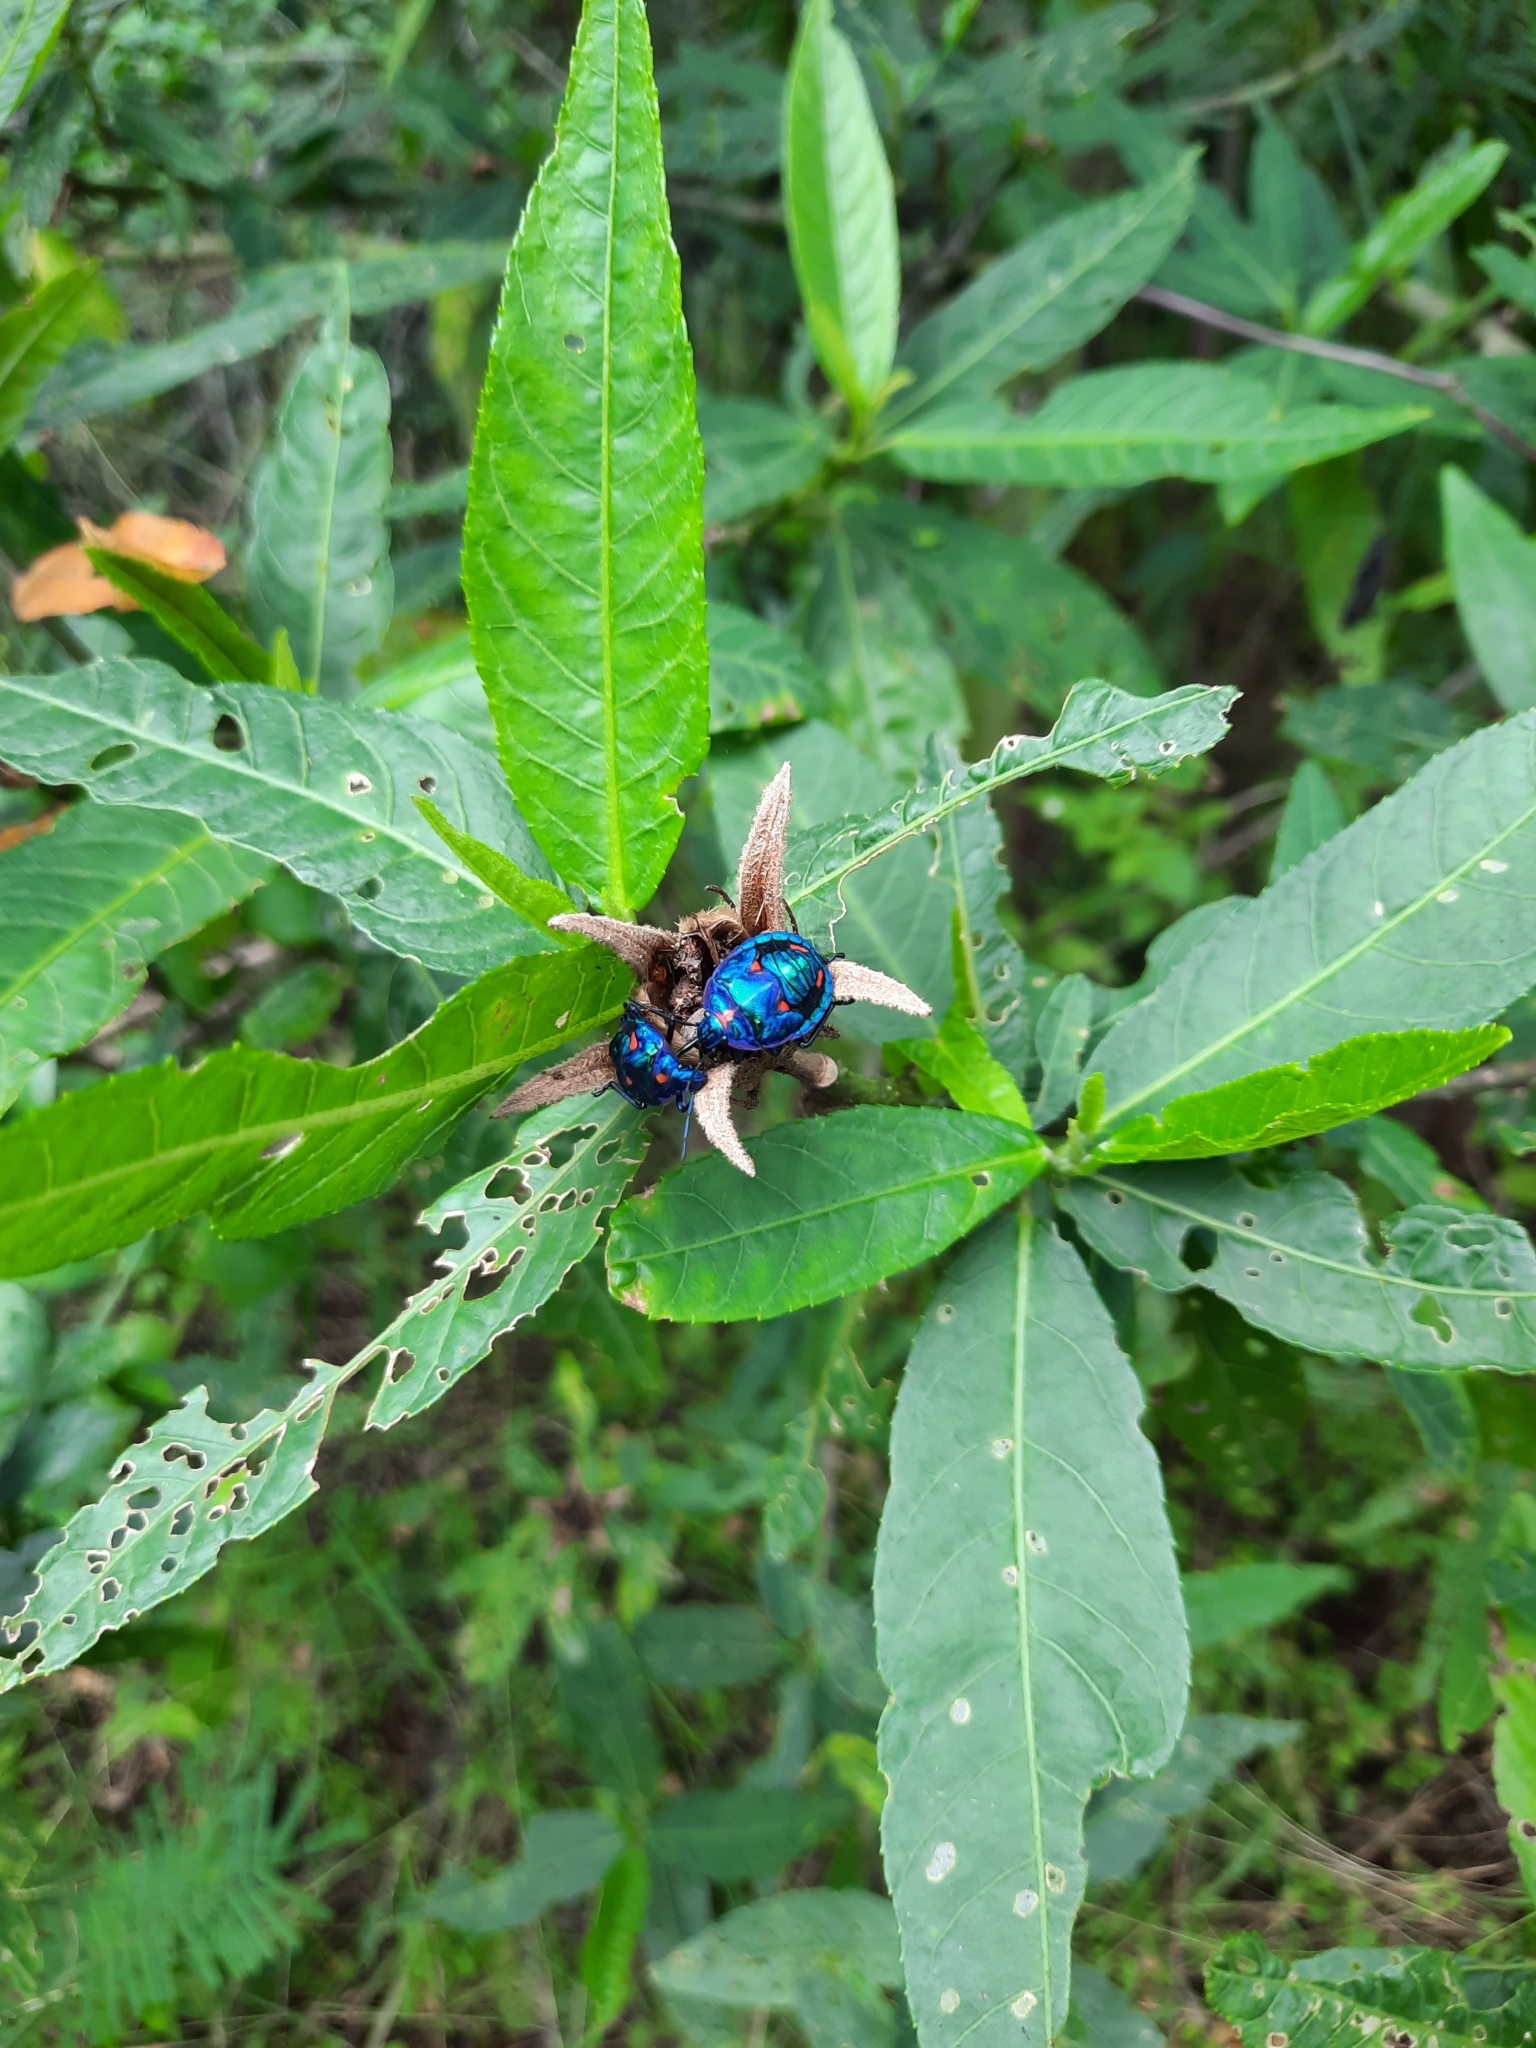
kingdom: Animalia
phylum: Arthropoda
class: Insecta
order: Hemiptera
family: Scutelleridae
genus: Tectocoris
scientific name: Tectocoris diophthalmus
